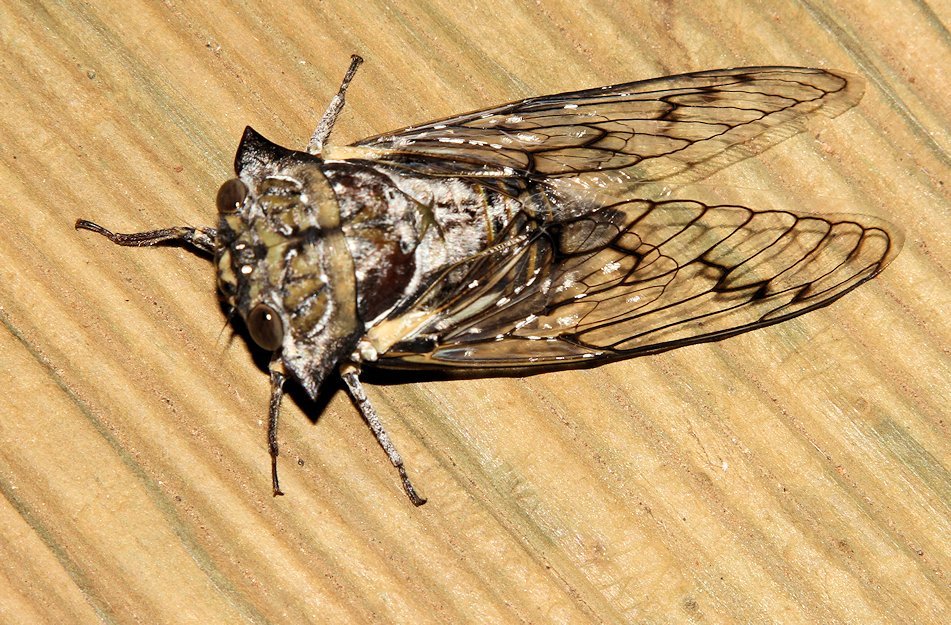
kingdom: Animalia
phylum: Arthropoda
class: Insecta
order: Hemiptera
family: Cicadidae
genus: Oxypleura
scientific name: Oxypleura quadraticollis
